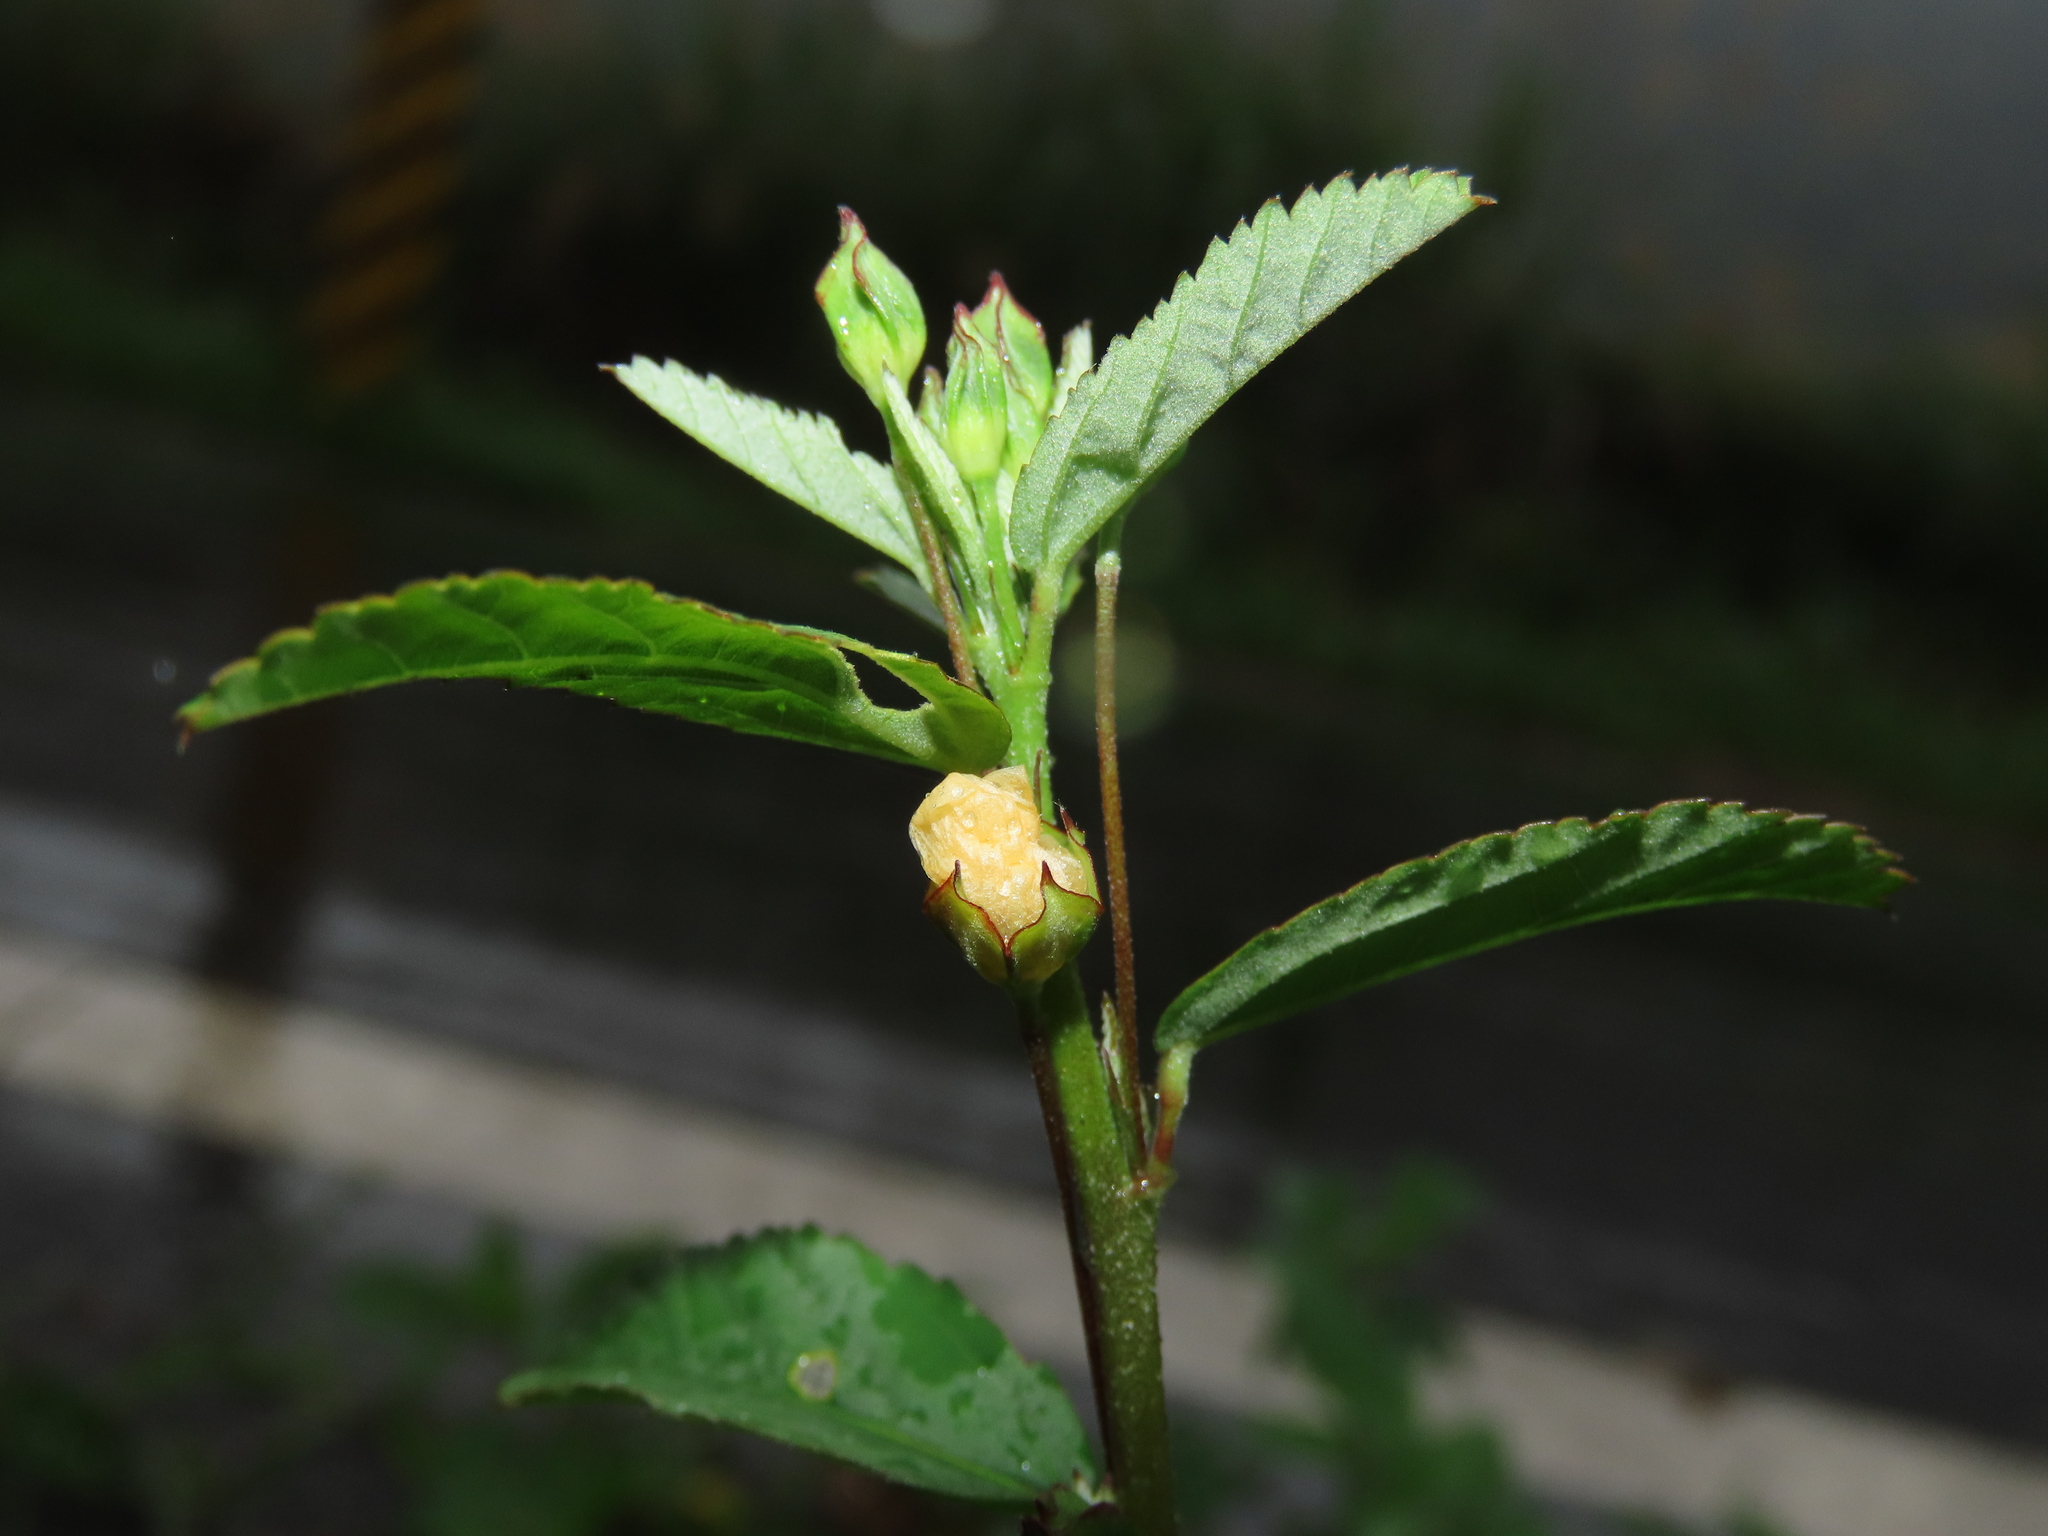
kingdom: Plantae
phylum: Tracheophyta
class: Magnoliopsida
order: Malvales
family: Malvaceae
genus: Sida
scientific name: Sida rhombifolia
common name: Queensland-hemp
